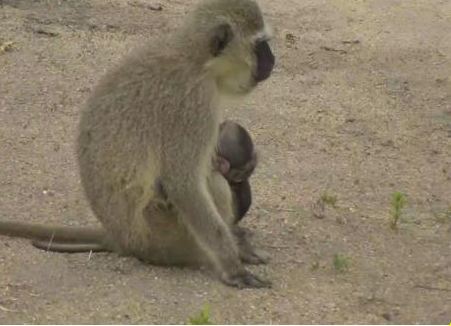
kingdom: Animalia
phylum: Chordata
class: Mammalia
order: Primates
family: Cercopithecidae
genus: Chlorocebus
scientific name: Chlorocebus pygerythrus
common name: Vervet monkey
